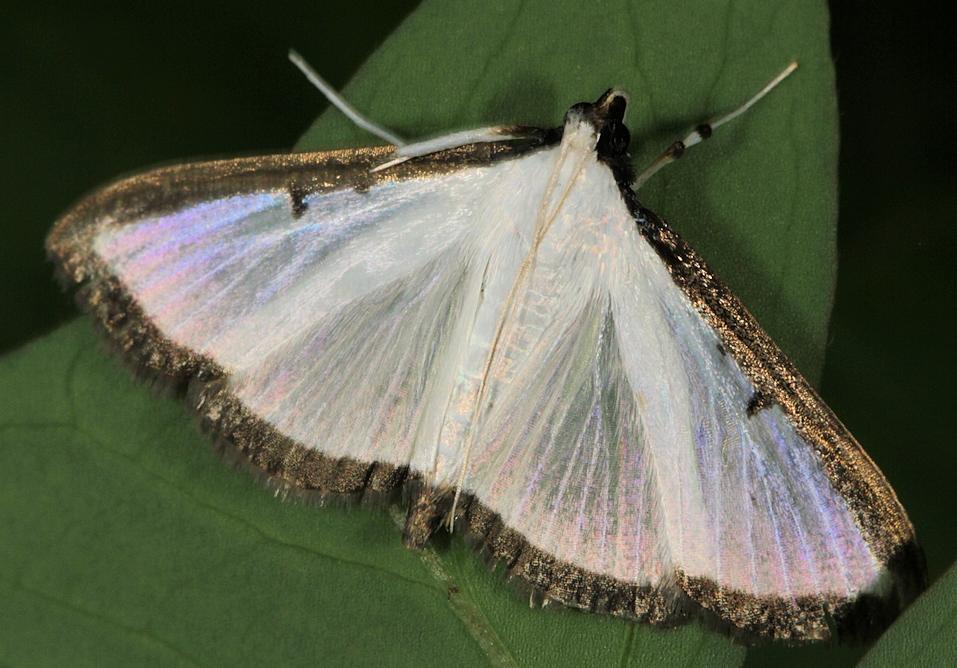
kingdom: Animalia
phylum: Arthropoda
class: Insecta
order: Lepidoptera
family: Crambidae
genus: Cryptographis
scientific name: Cryptographis elealis
